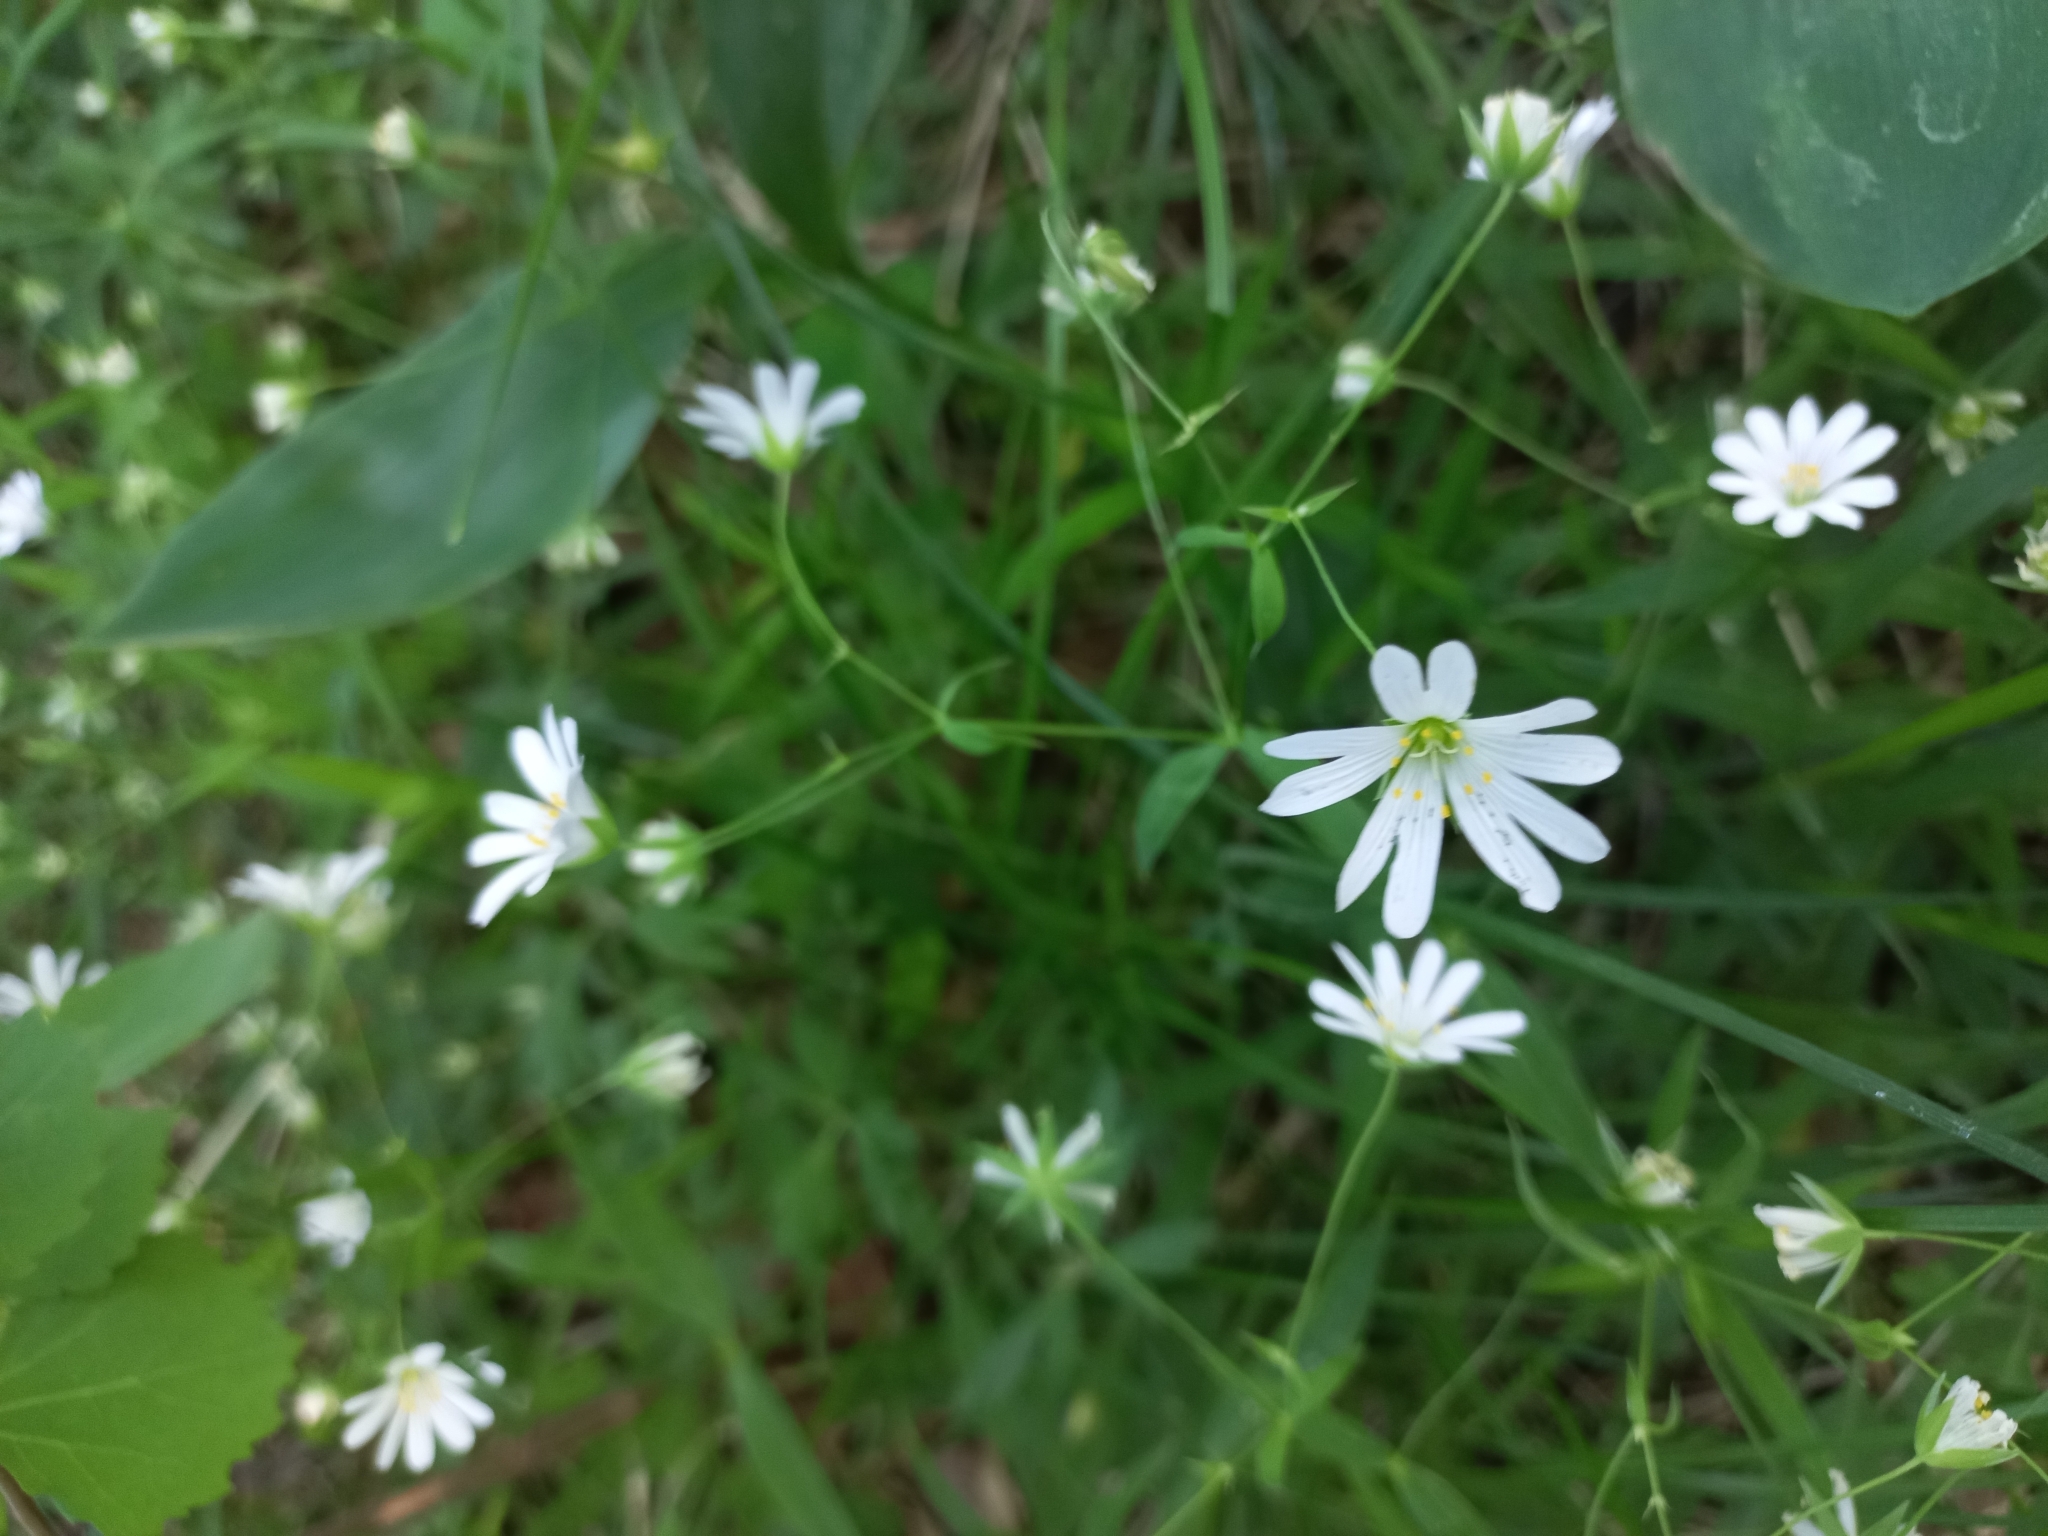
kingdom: Plantae
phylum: Tracheophyta
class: Magnoliopsida
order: Caryophyllales
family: Caryophyllaceae
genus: Rabelera
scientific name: Rabelera holostea
